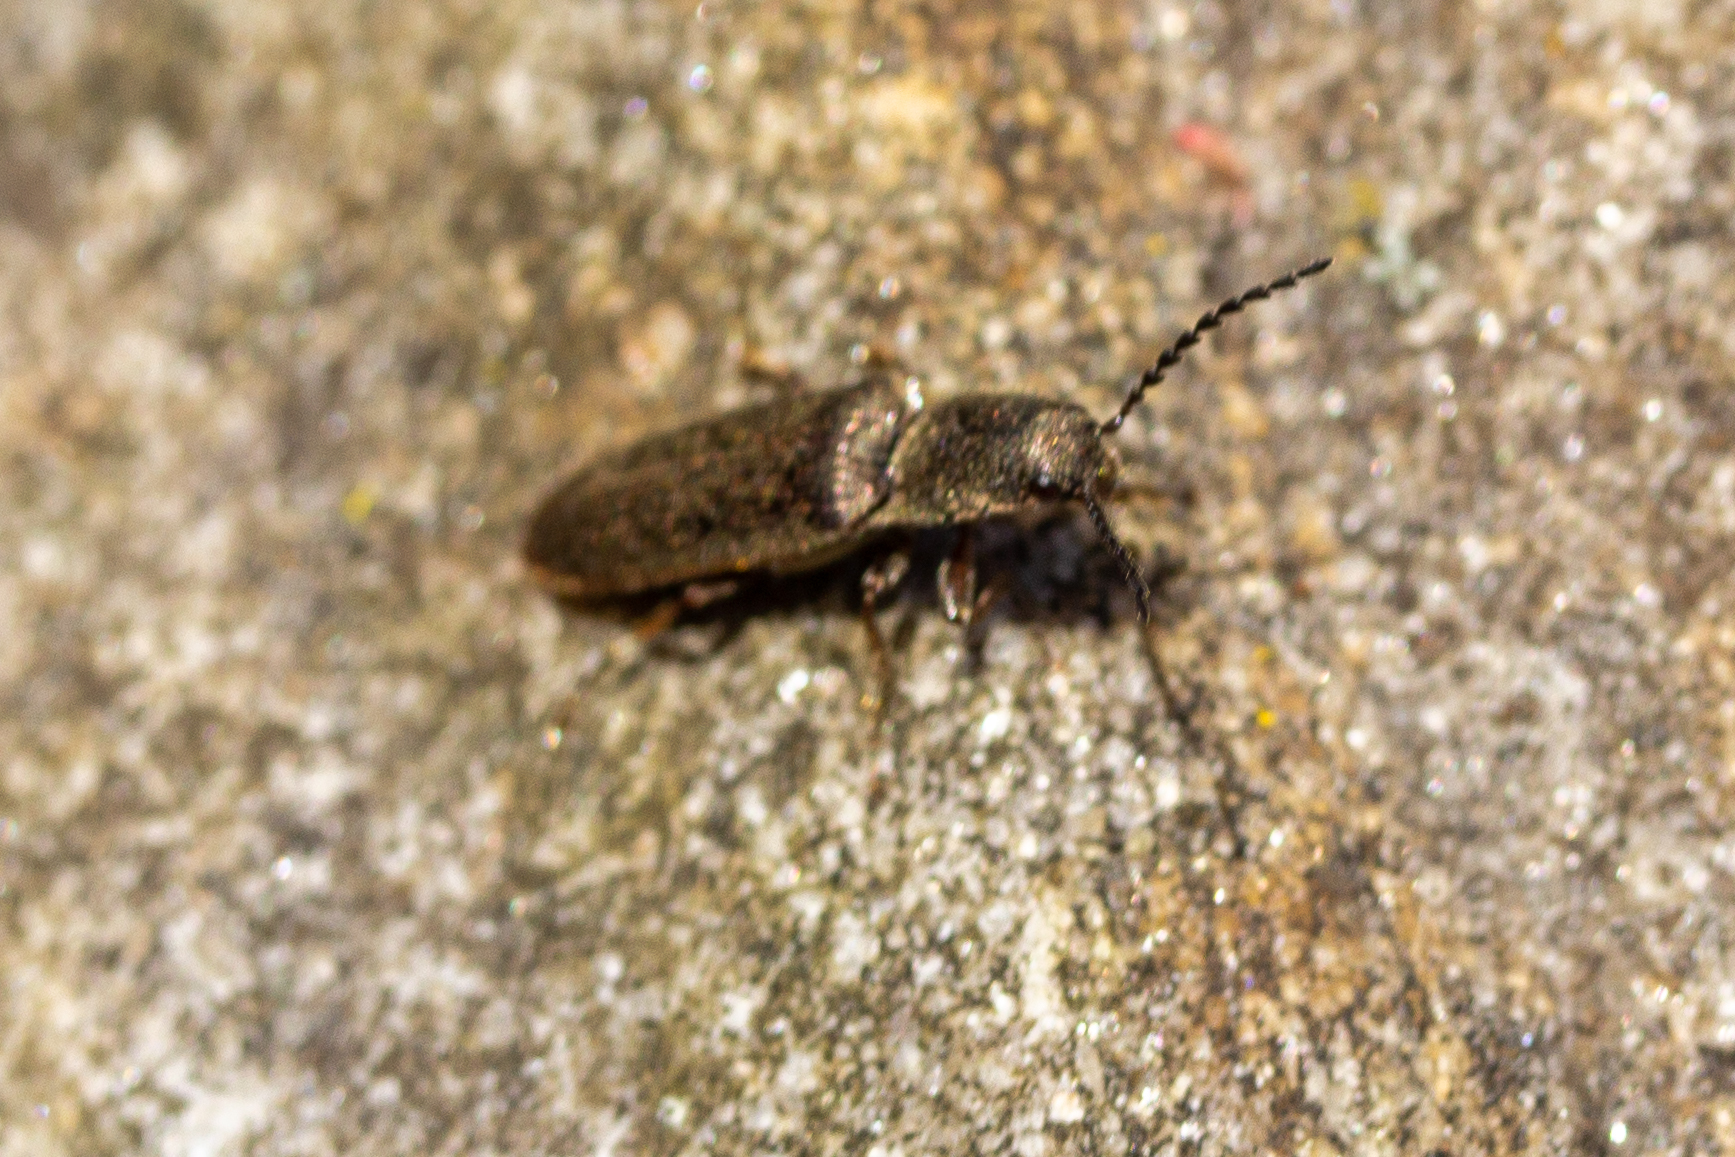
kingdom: Animalia
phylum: Arthropoda
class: Insecta
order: Coleoptera
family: Elateridae
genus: Sylvanelater
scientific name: Sylvanelater cylindriformis
